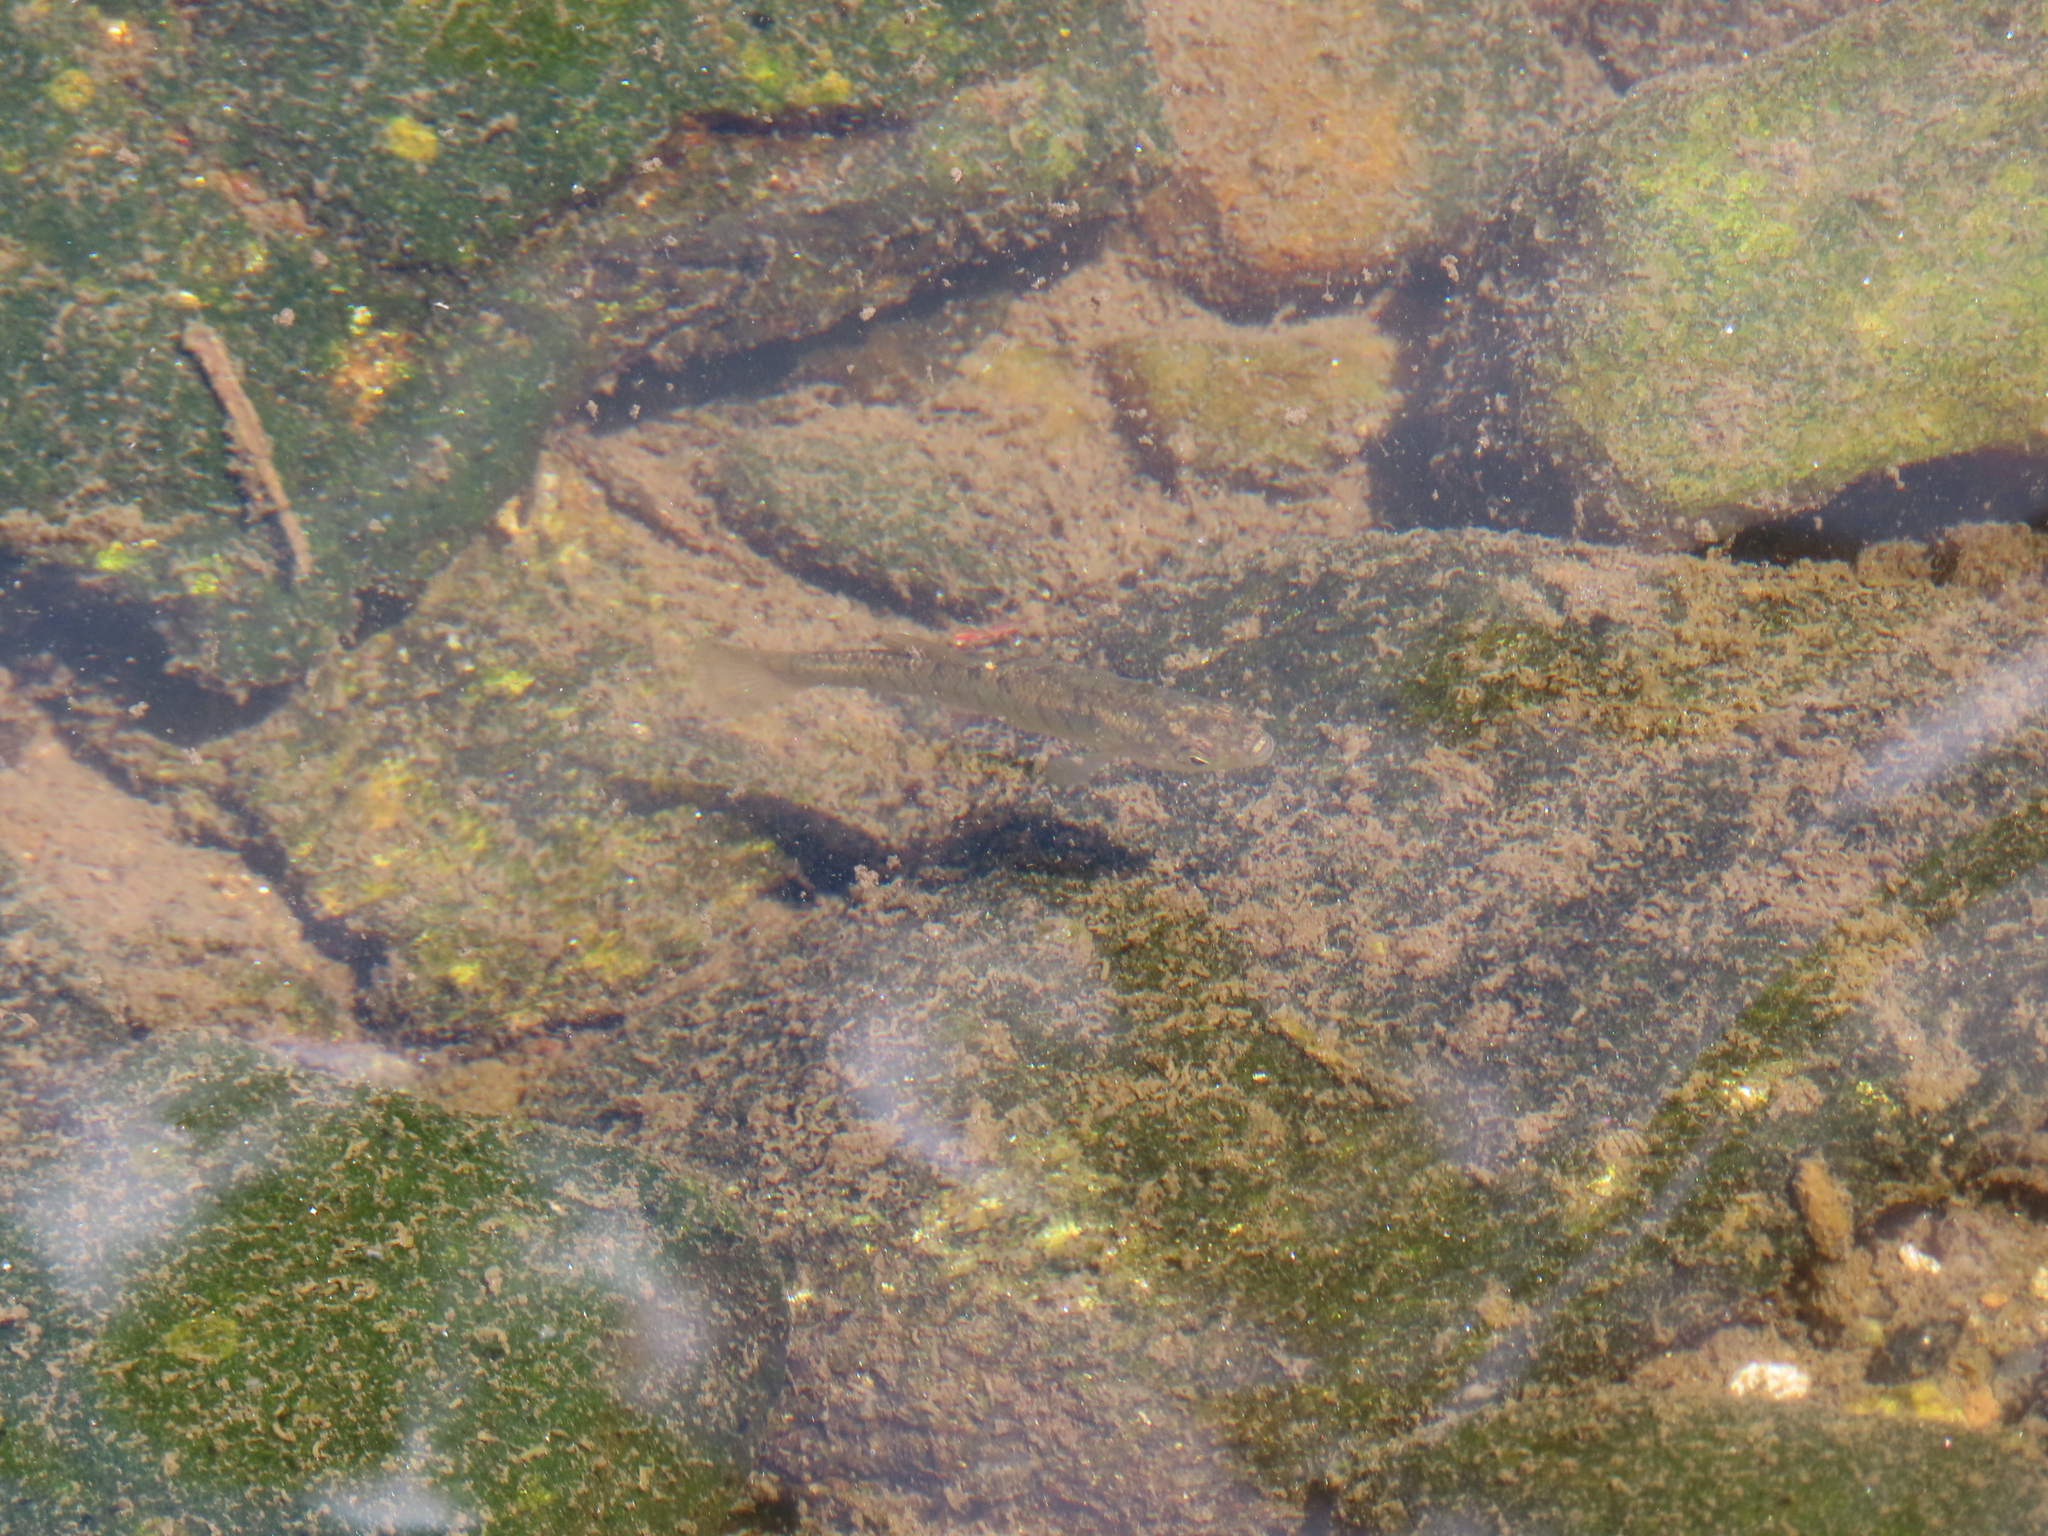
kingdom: Animalia
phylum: Chordata
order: Cyprinodontiformes
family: Fundulidae
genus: Fundulus
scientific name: Fundulus diaphanus
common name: Banded killifish
